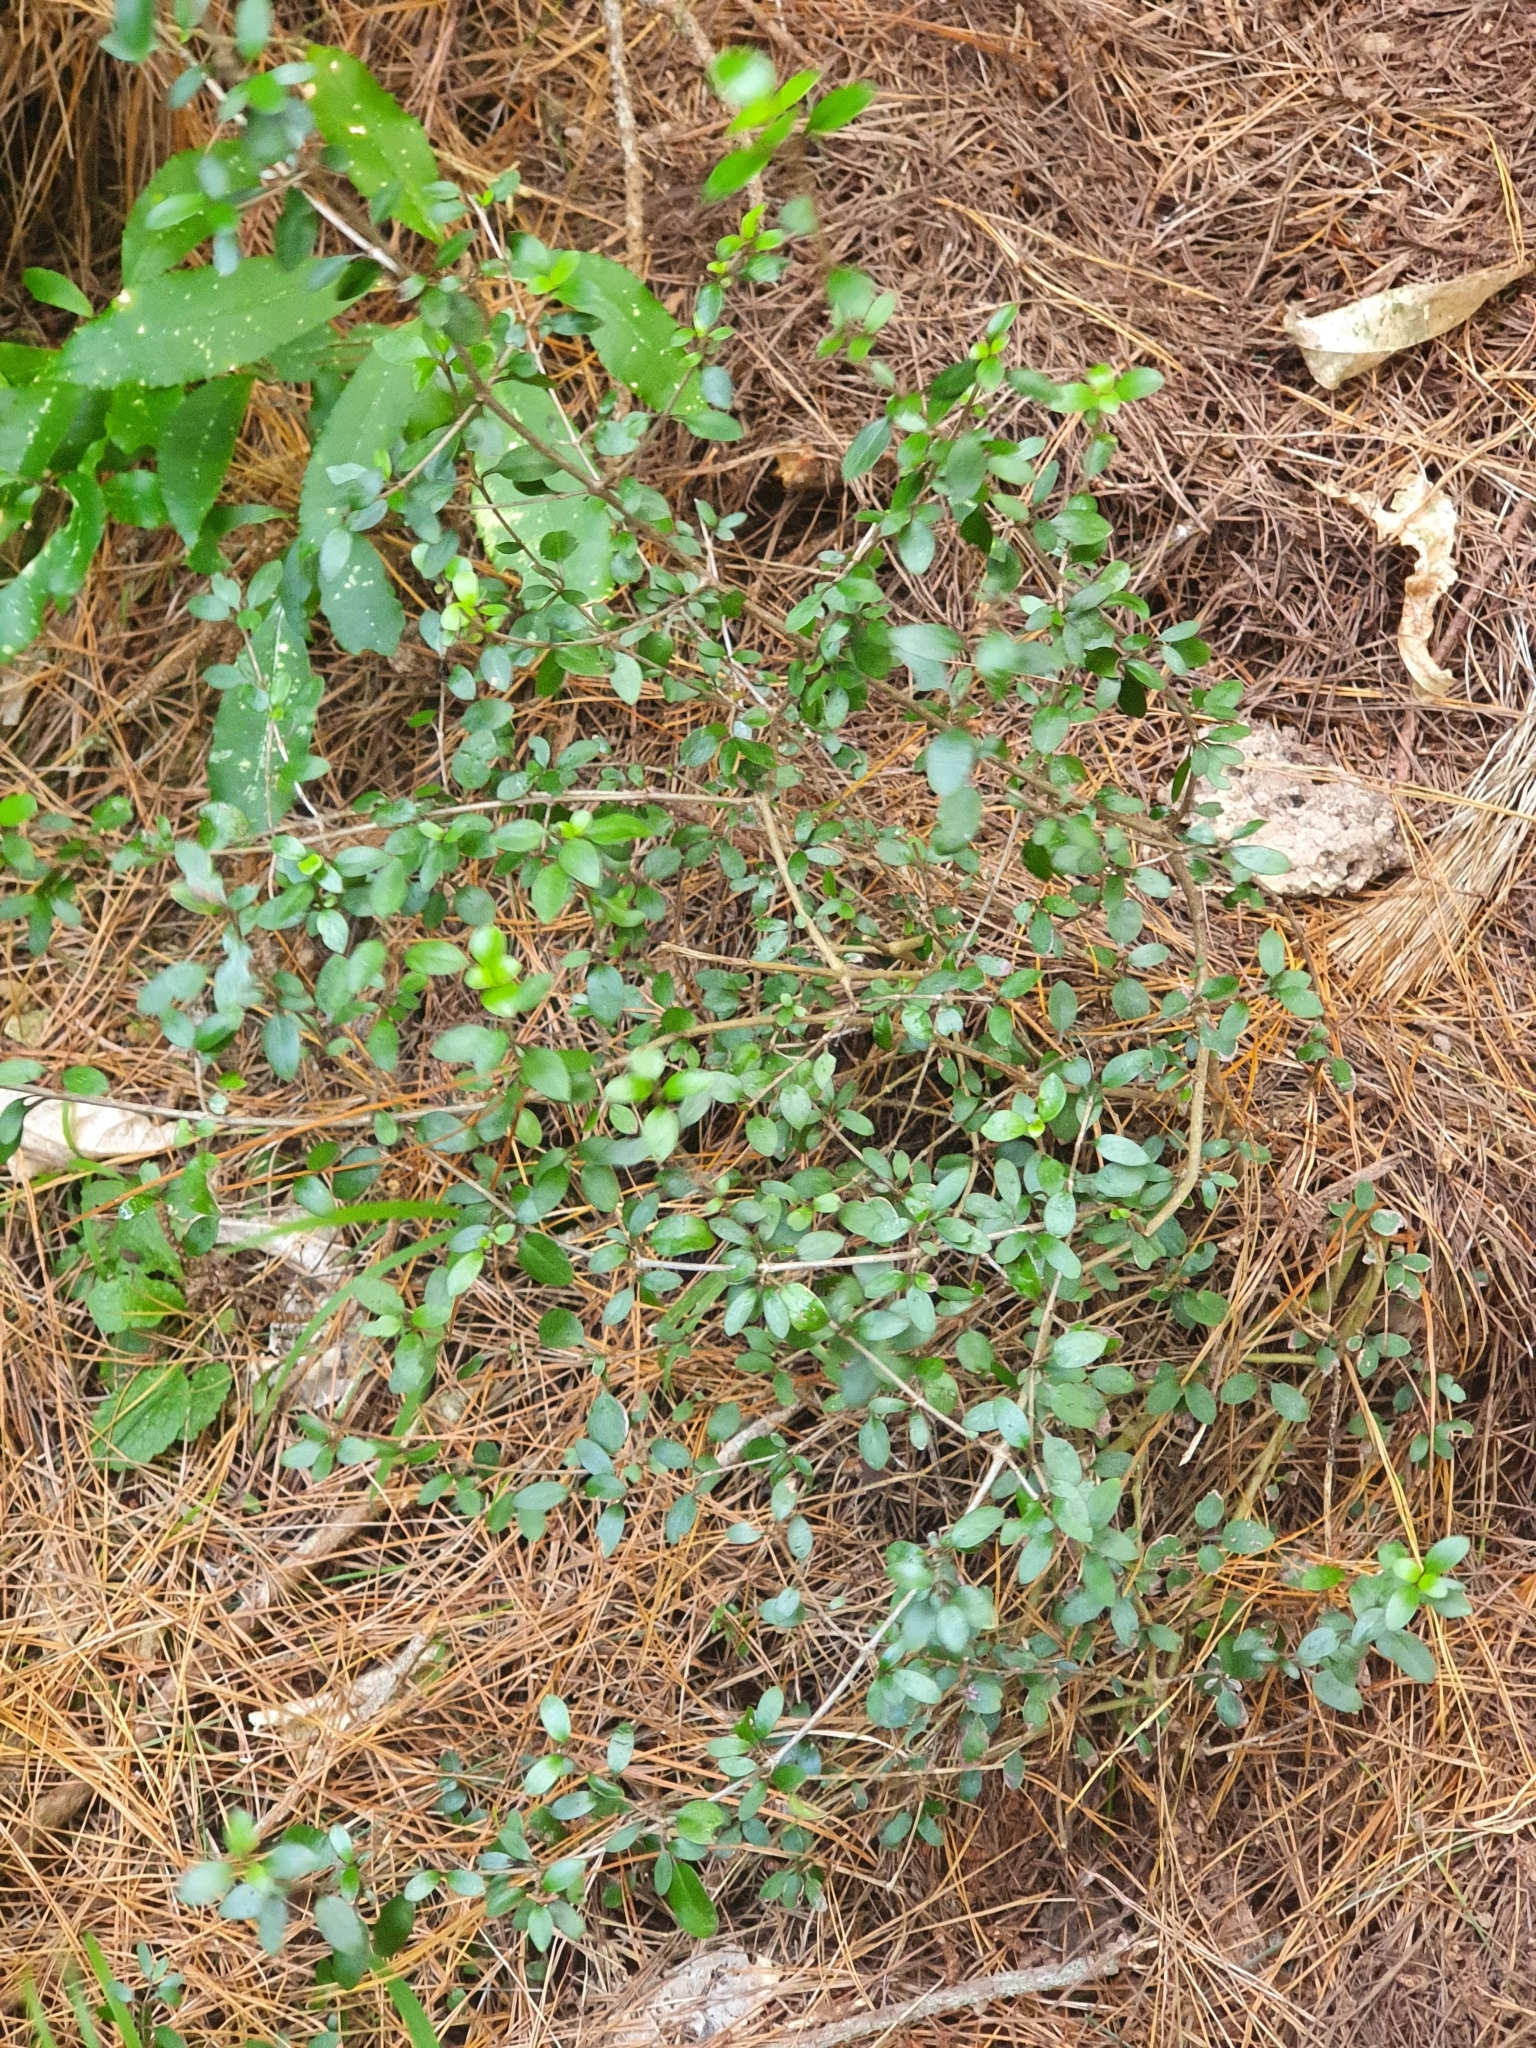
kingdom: Plantae
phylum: Tracheophyta
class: Magnoliopsida
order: Gentianales
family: Rubiaceae
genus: Coprosma
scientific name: Coprosma cunninghamii
